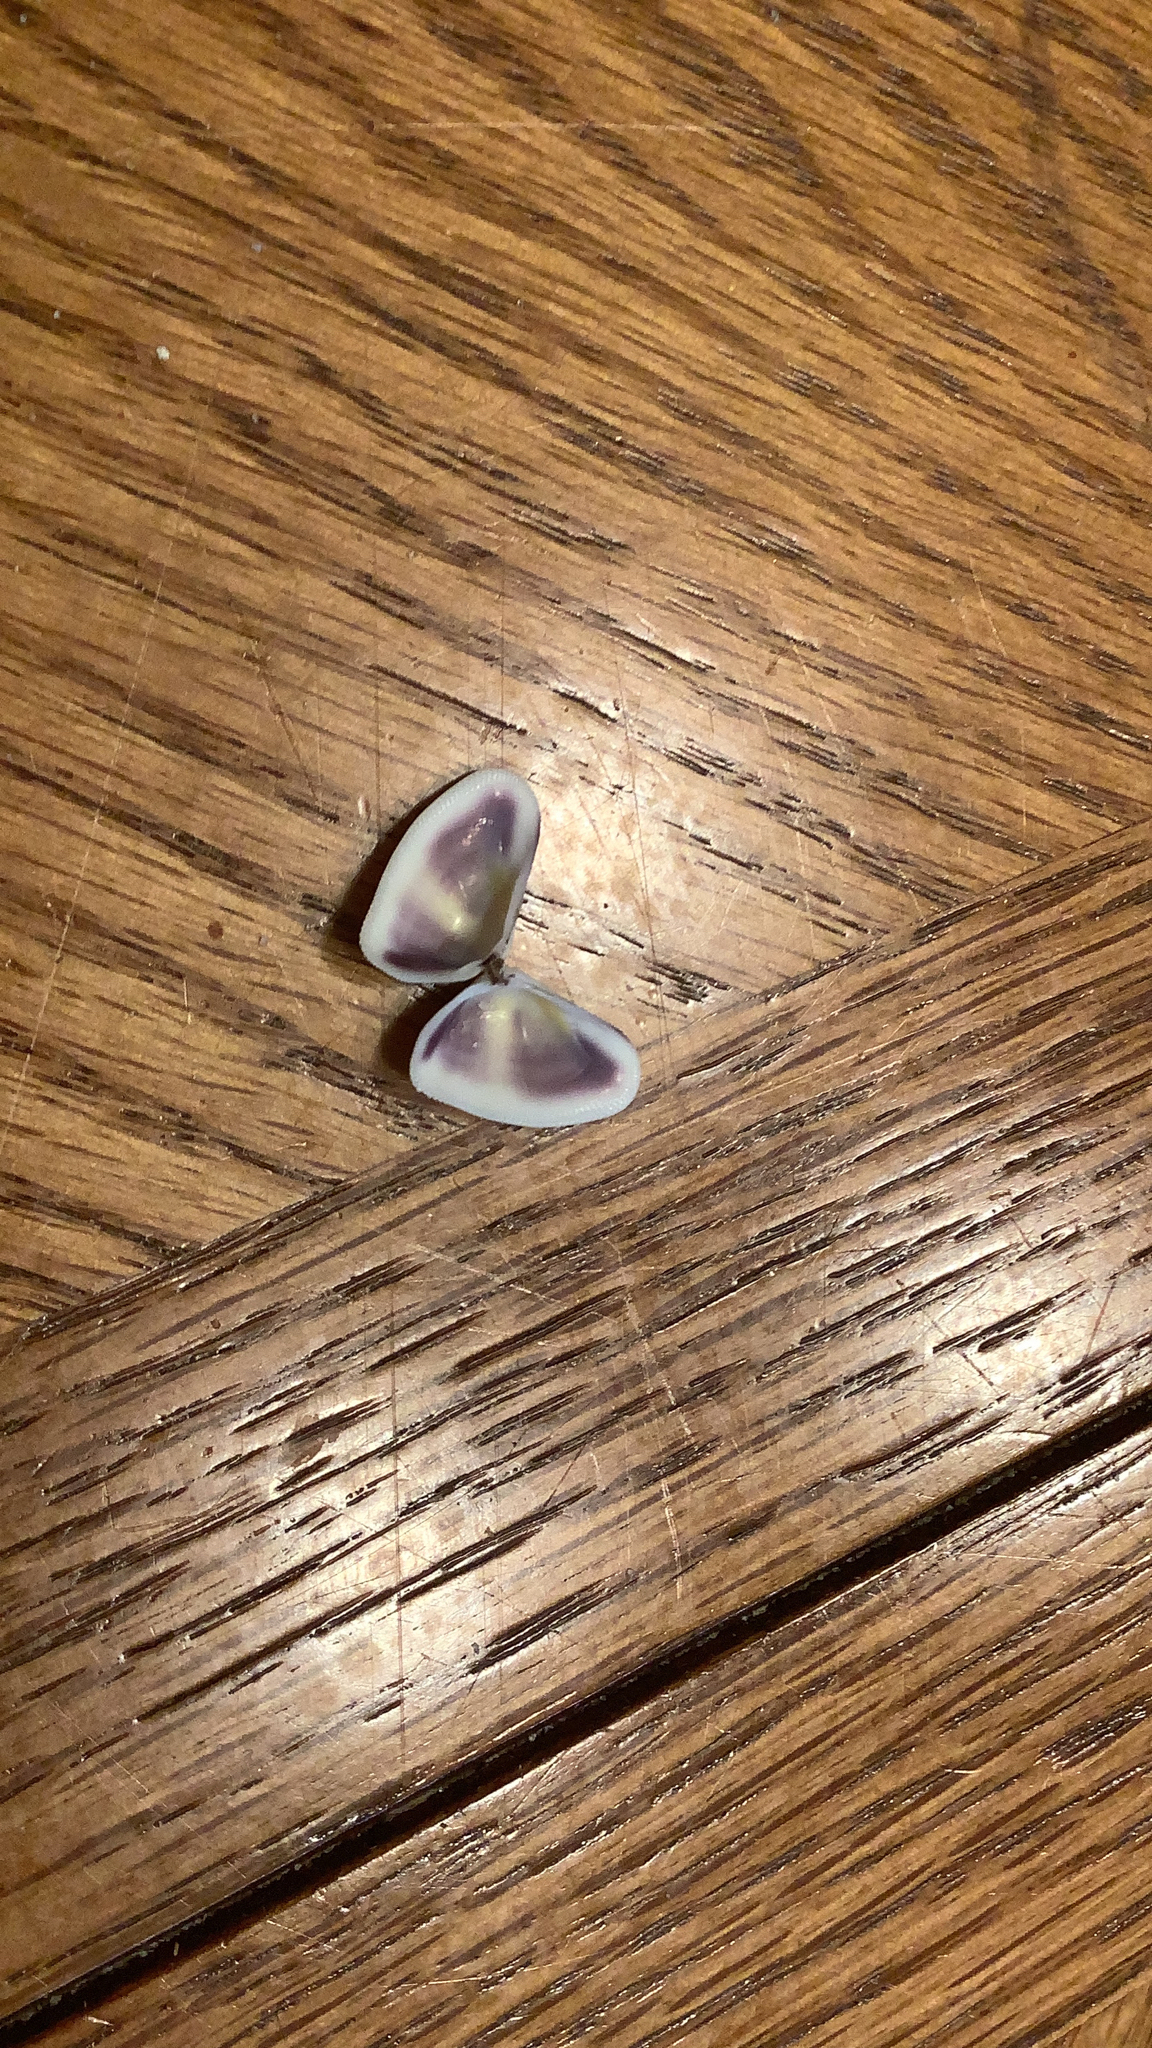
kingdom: Animalia
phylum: Mollusca
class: Bivalvia
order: Cardiida
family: Donacidae
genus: Donax
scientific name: Donax variabilis
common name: Butterfly shell
